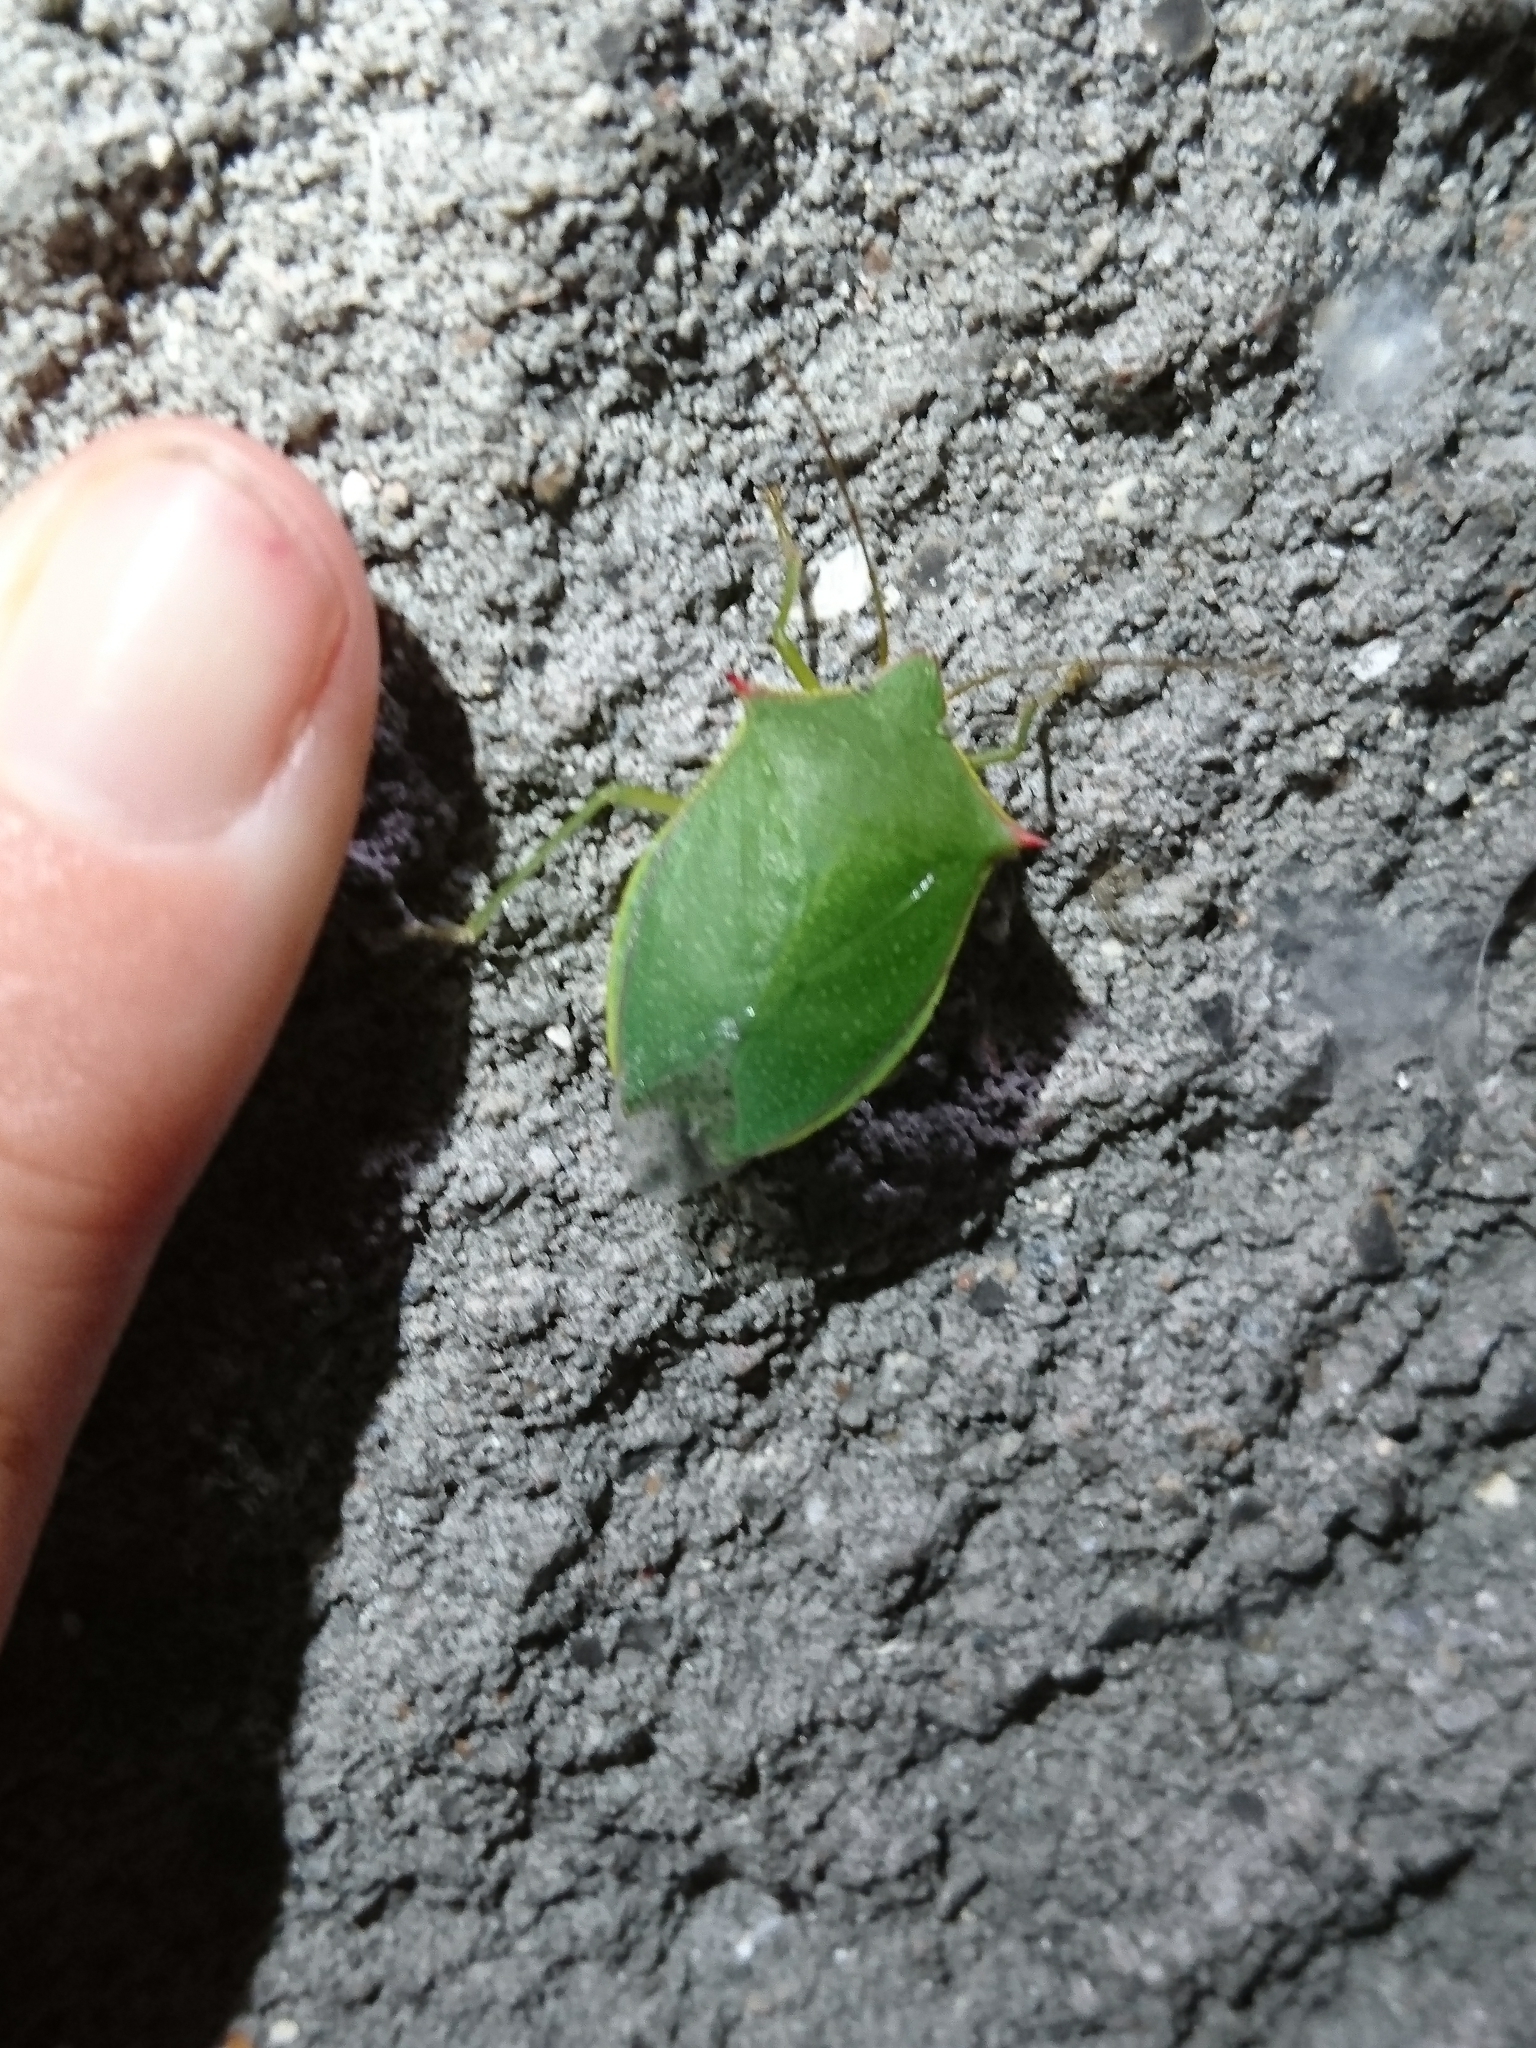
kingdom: Animalia
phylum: Arthropoda
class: Insecta
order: Hemiptera
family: Pentatomidae
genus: Loxa
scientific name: Loxa flavicollis
